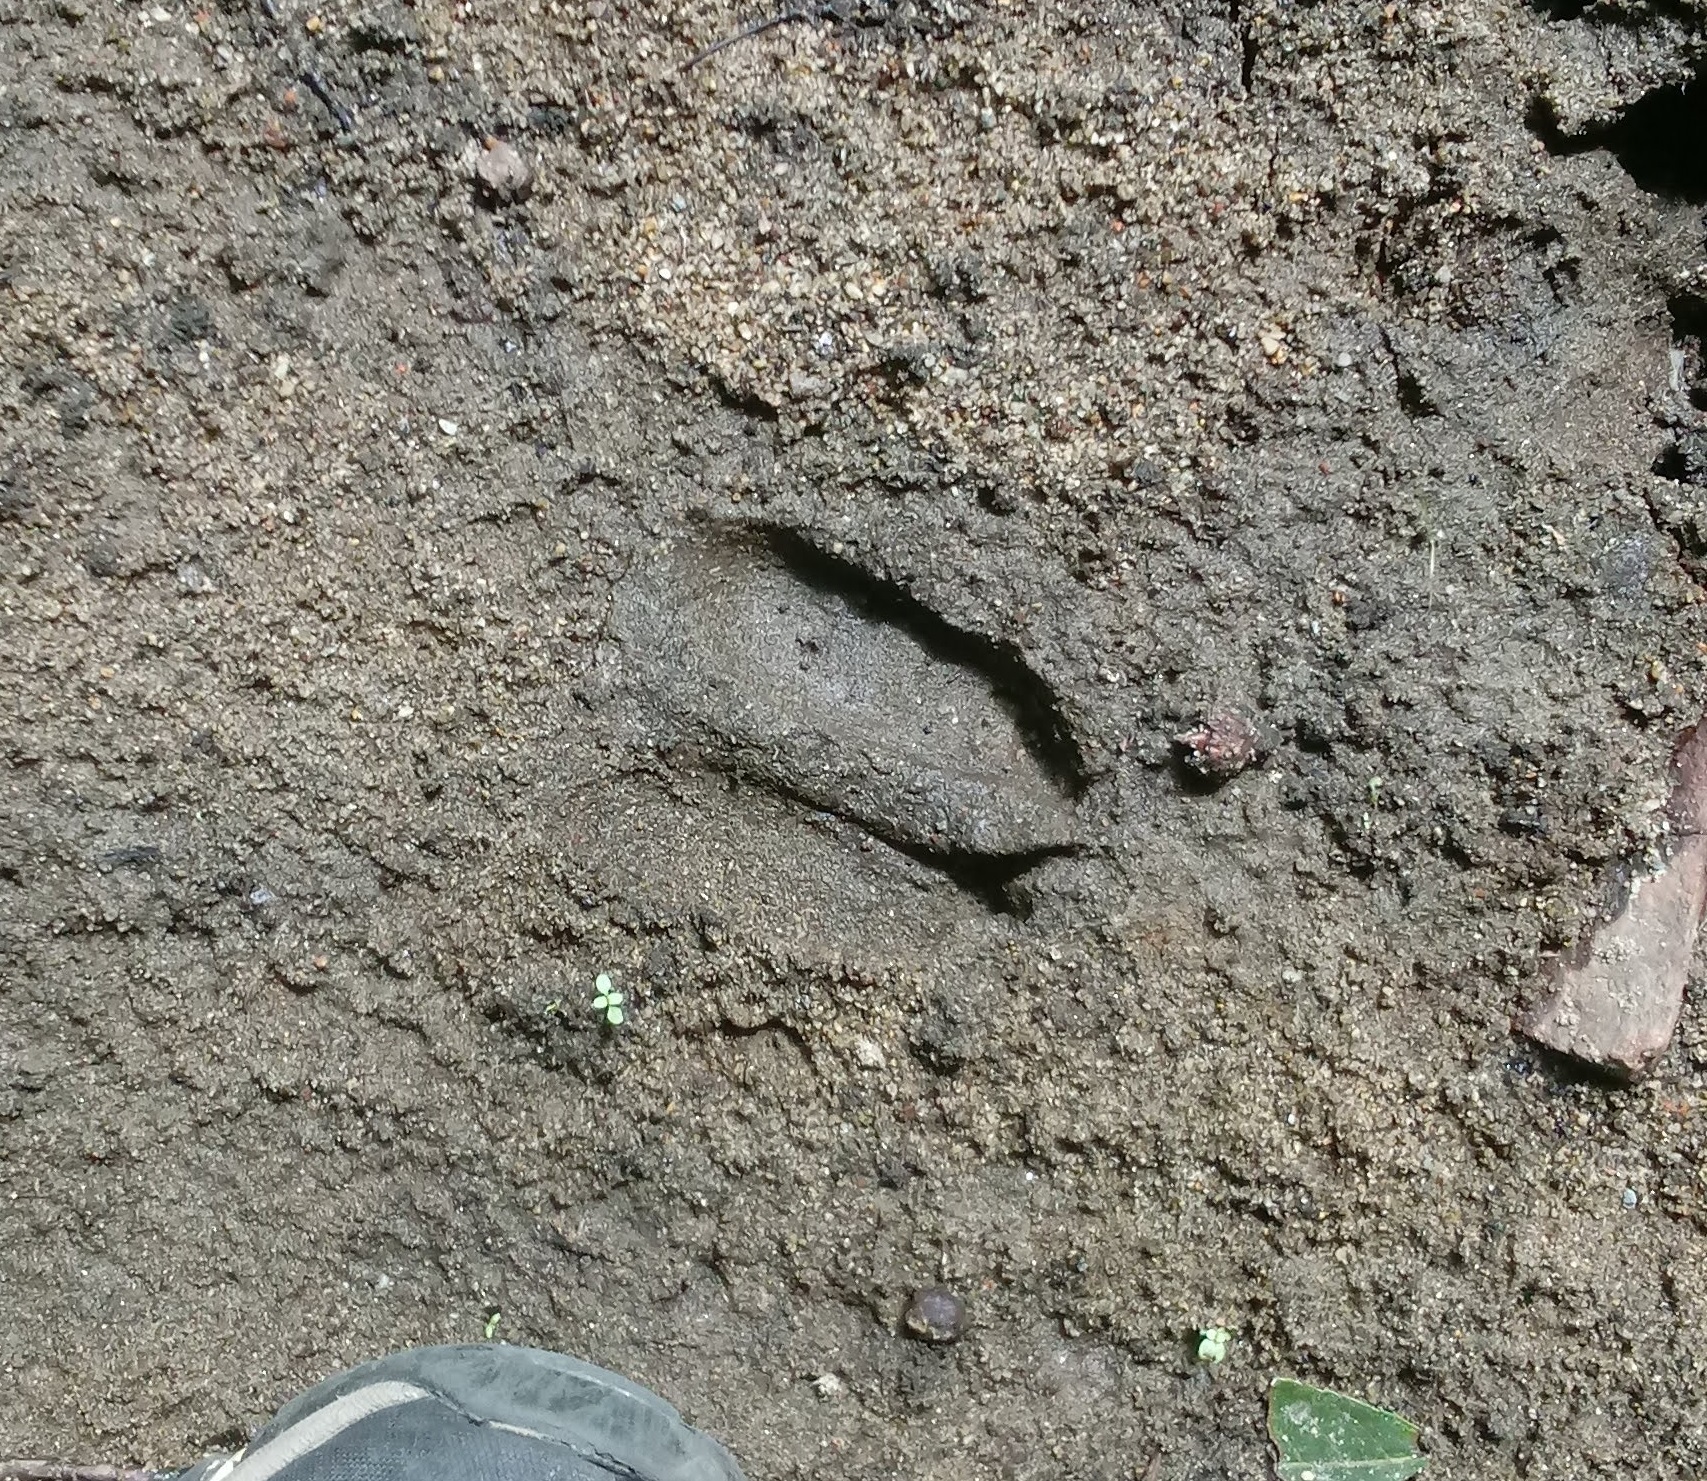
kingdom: Animalia
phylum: Chordata
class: Mammalia
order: Artiodactyla
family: Cervidae
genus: Odocoileus
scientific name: Odocoileus virginianus
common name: White-tailed deer
